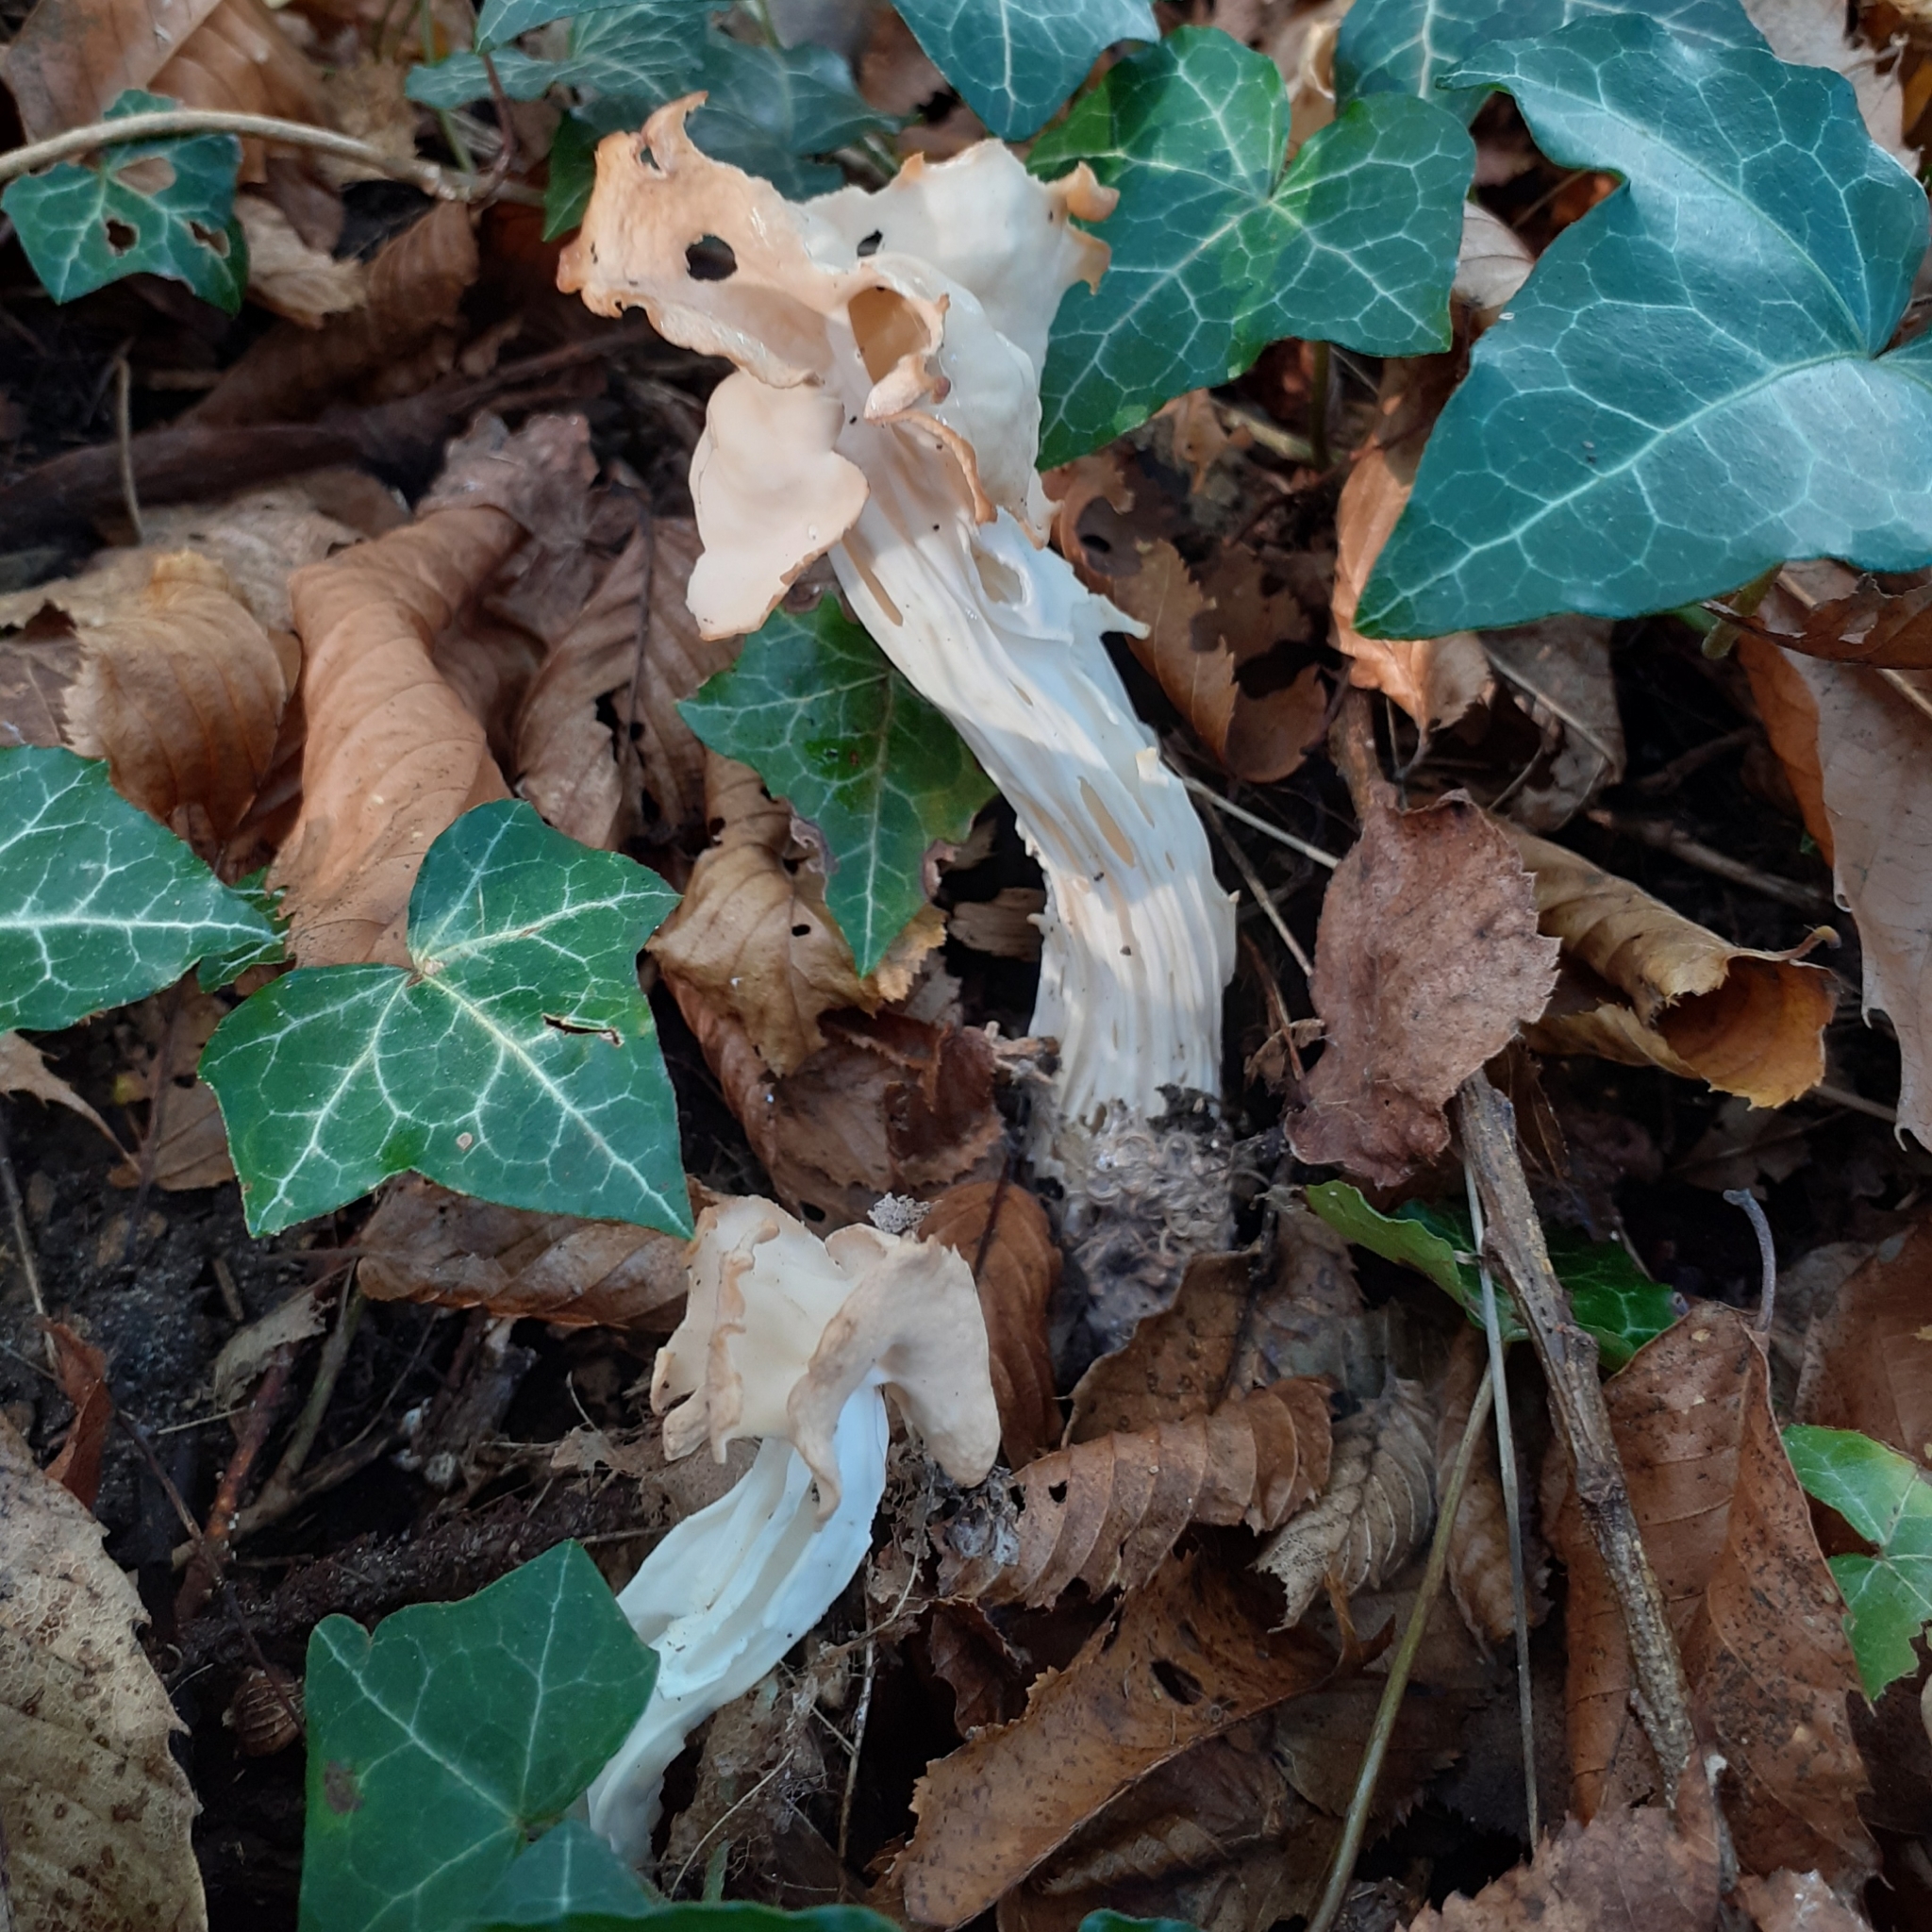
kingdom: Fungi
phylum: Ascomycota
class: Pezizomycetes
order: Pezizales
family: Helvellaceae
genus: Helvella
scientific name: Helvella crispa
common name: White saddle
